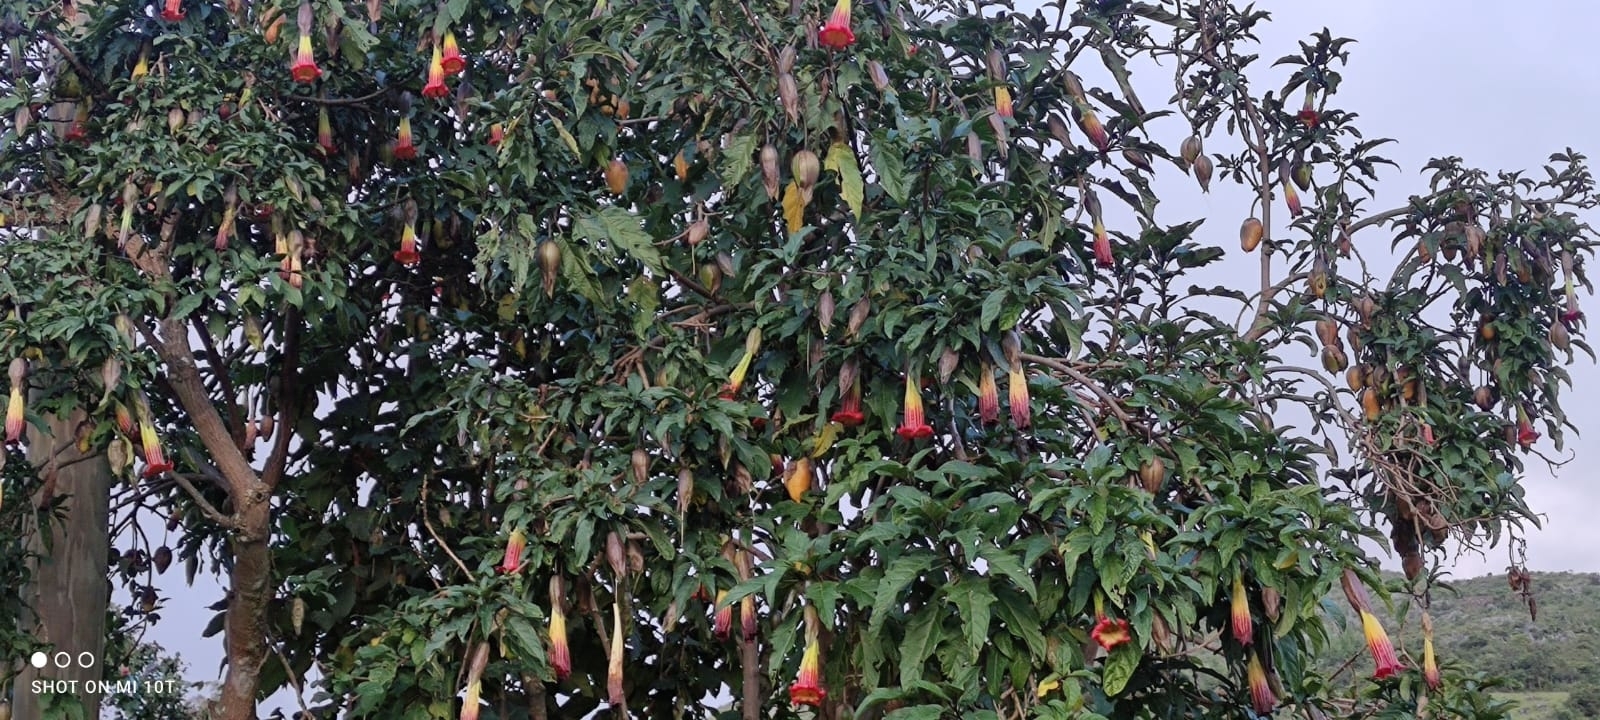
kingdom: Plantae
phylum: Tracheophyta
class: Magnoliopsida
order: Solanales
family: Solanaceae
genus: Brugmansia
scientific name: Brugmansia sanguinea
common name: Red floripontio
